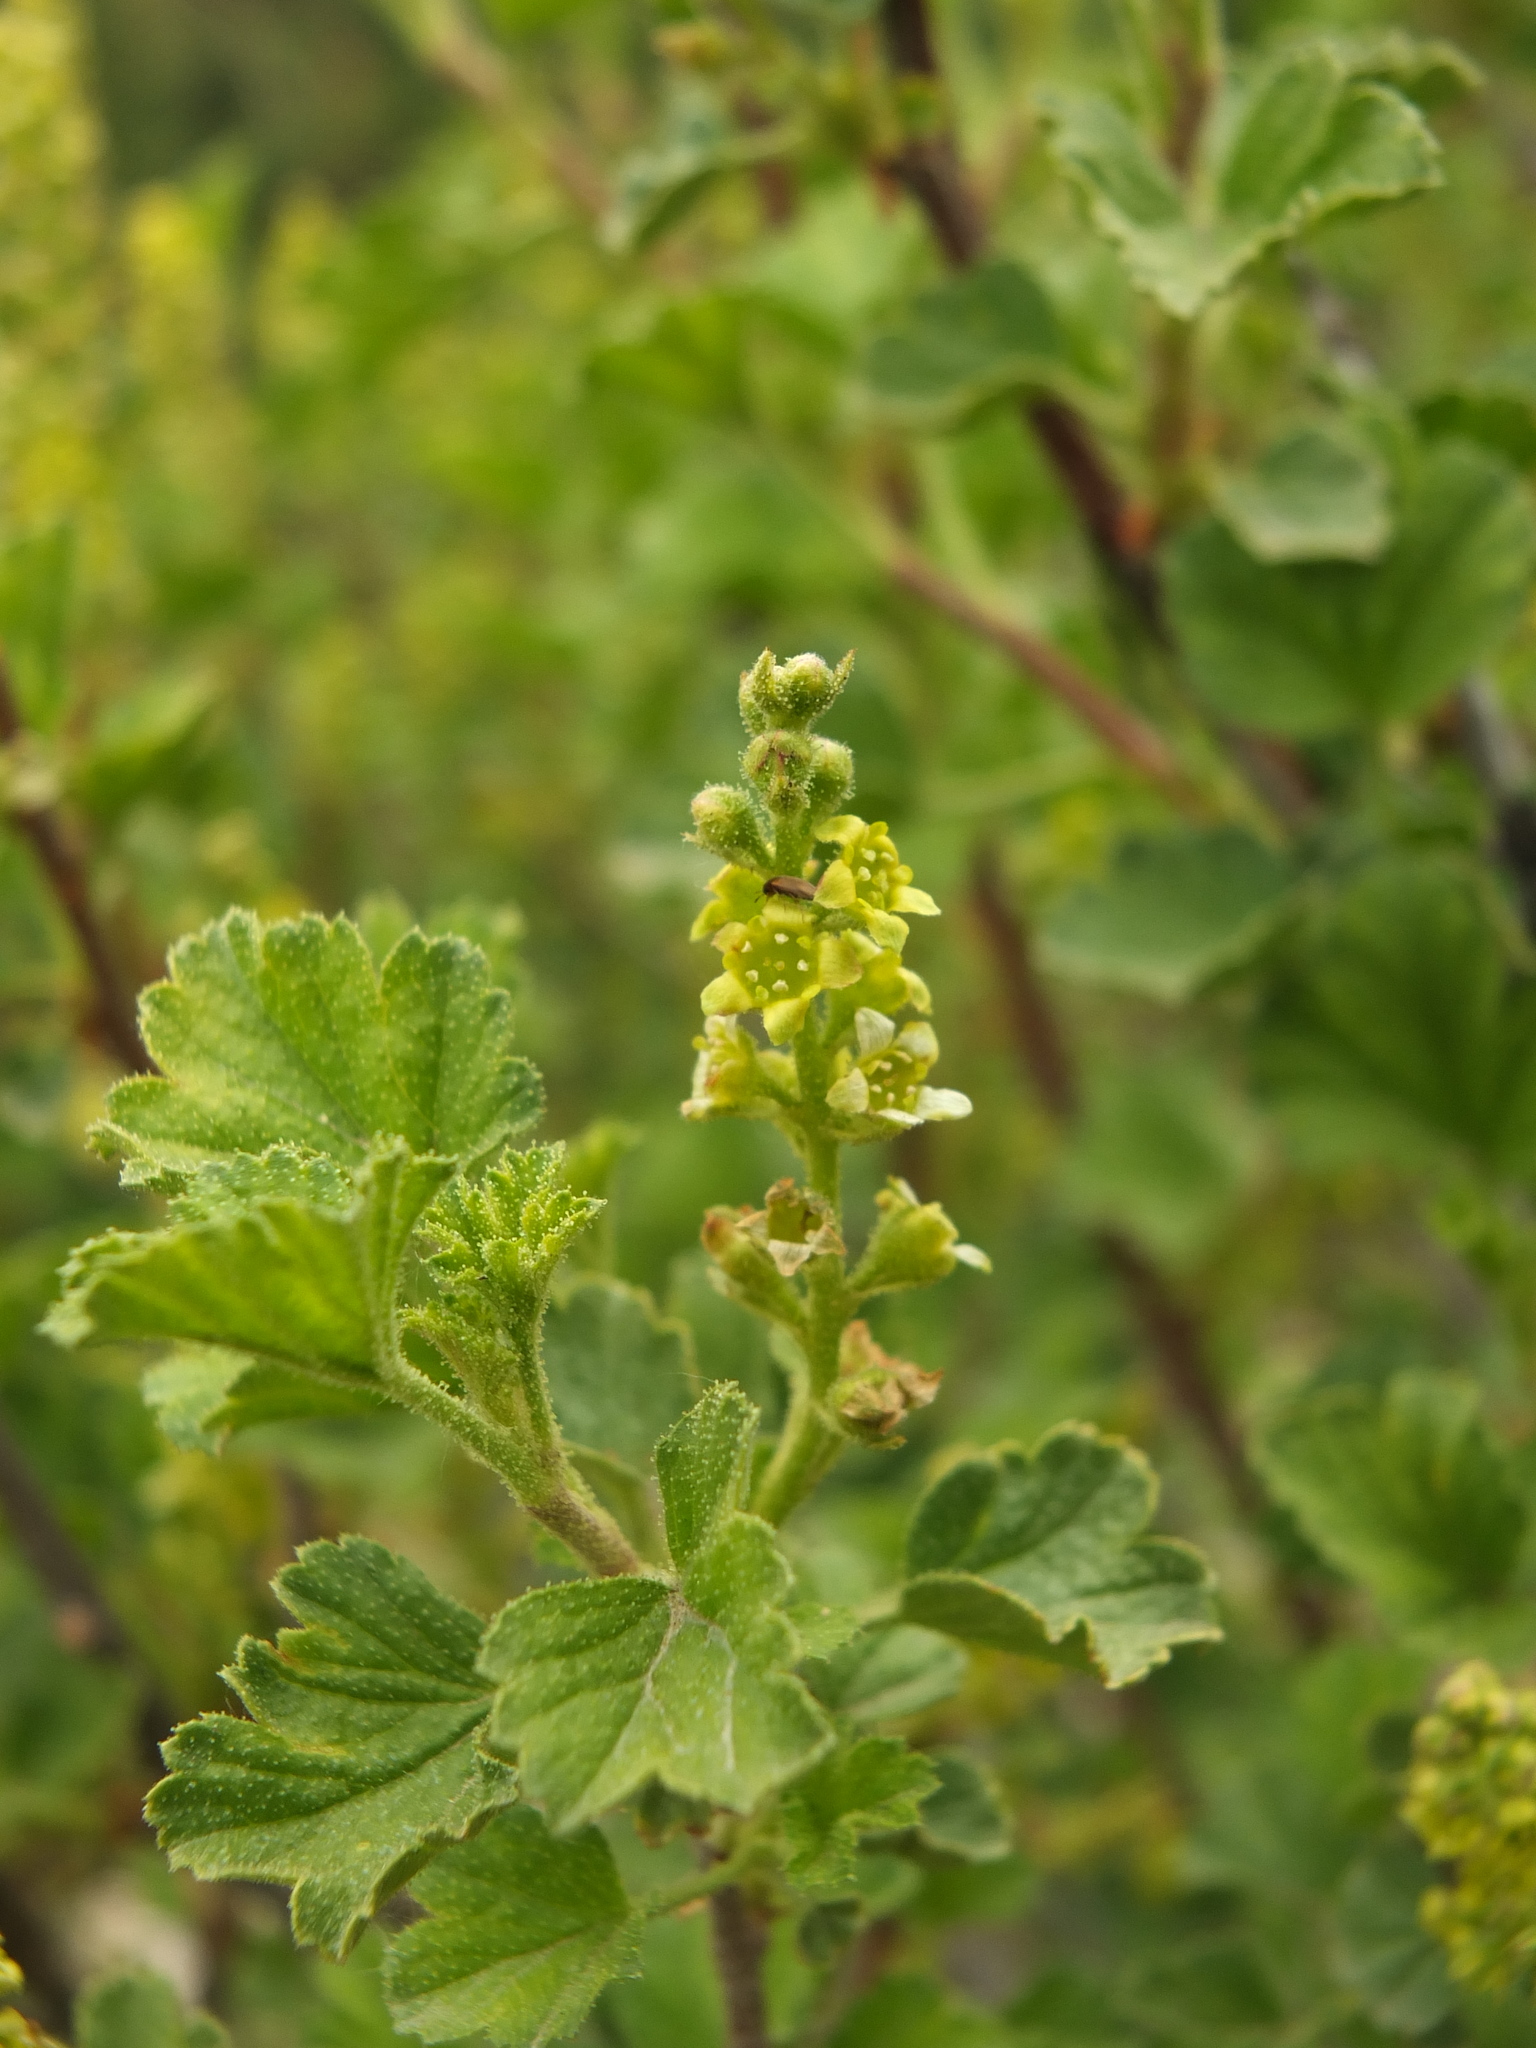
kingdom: Plantae
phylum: Tracheophyta
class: Magnoliopsida
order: Saxifragales
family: Grossulariaceae
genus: Ribes
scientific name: Ribes orientale
